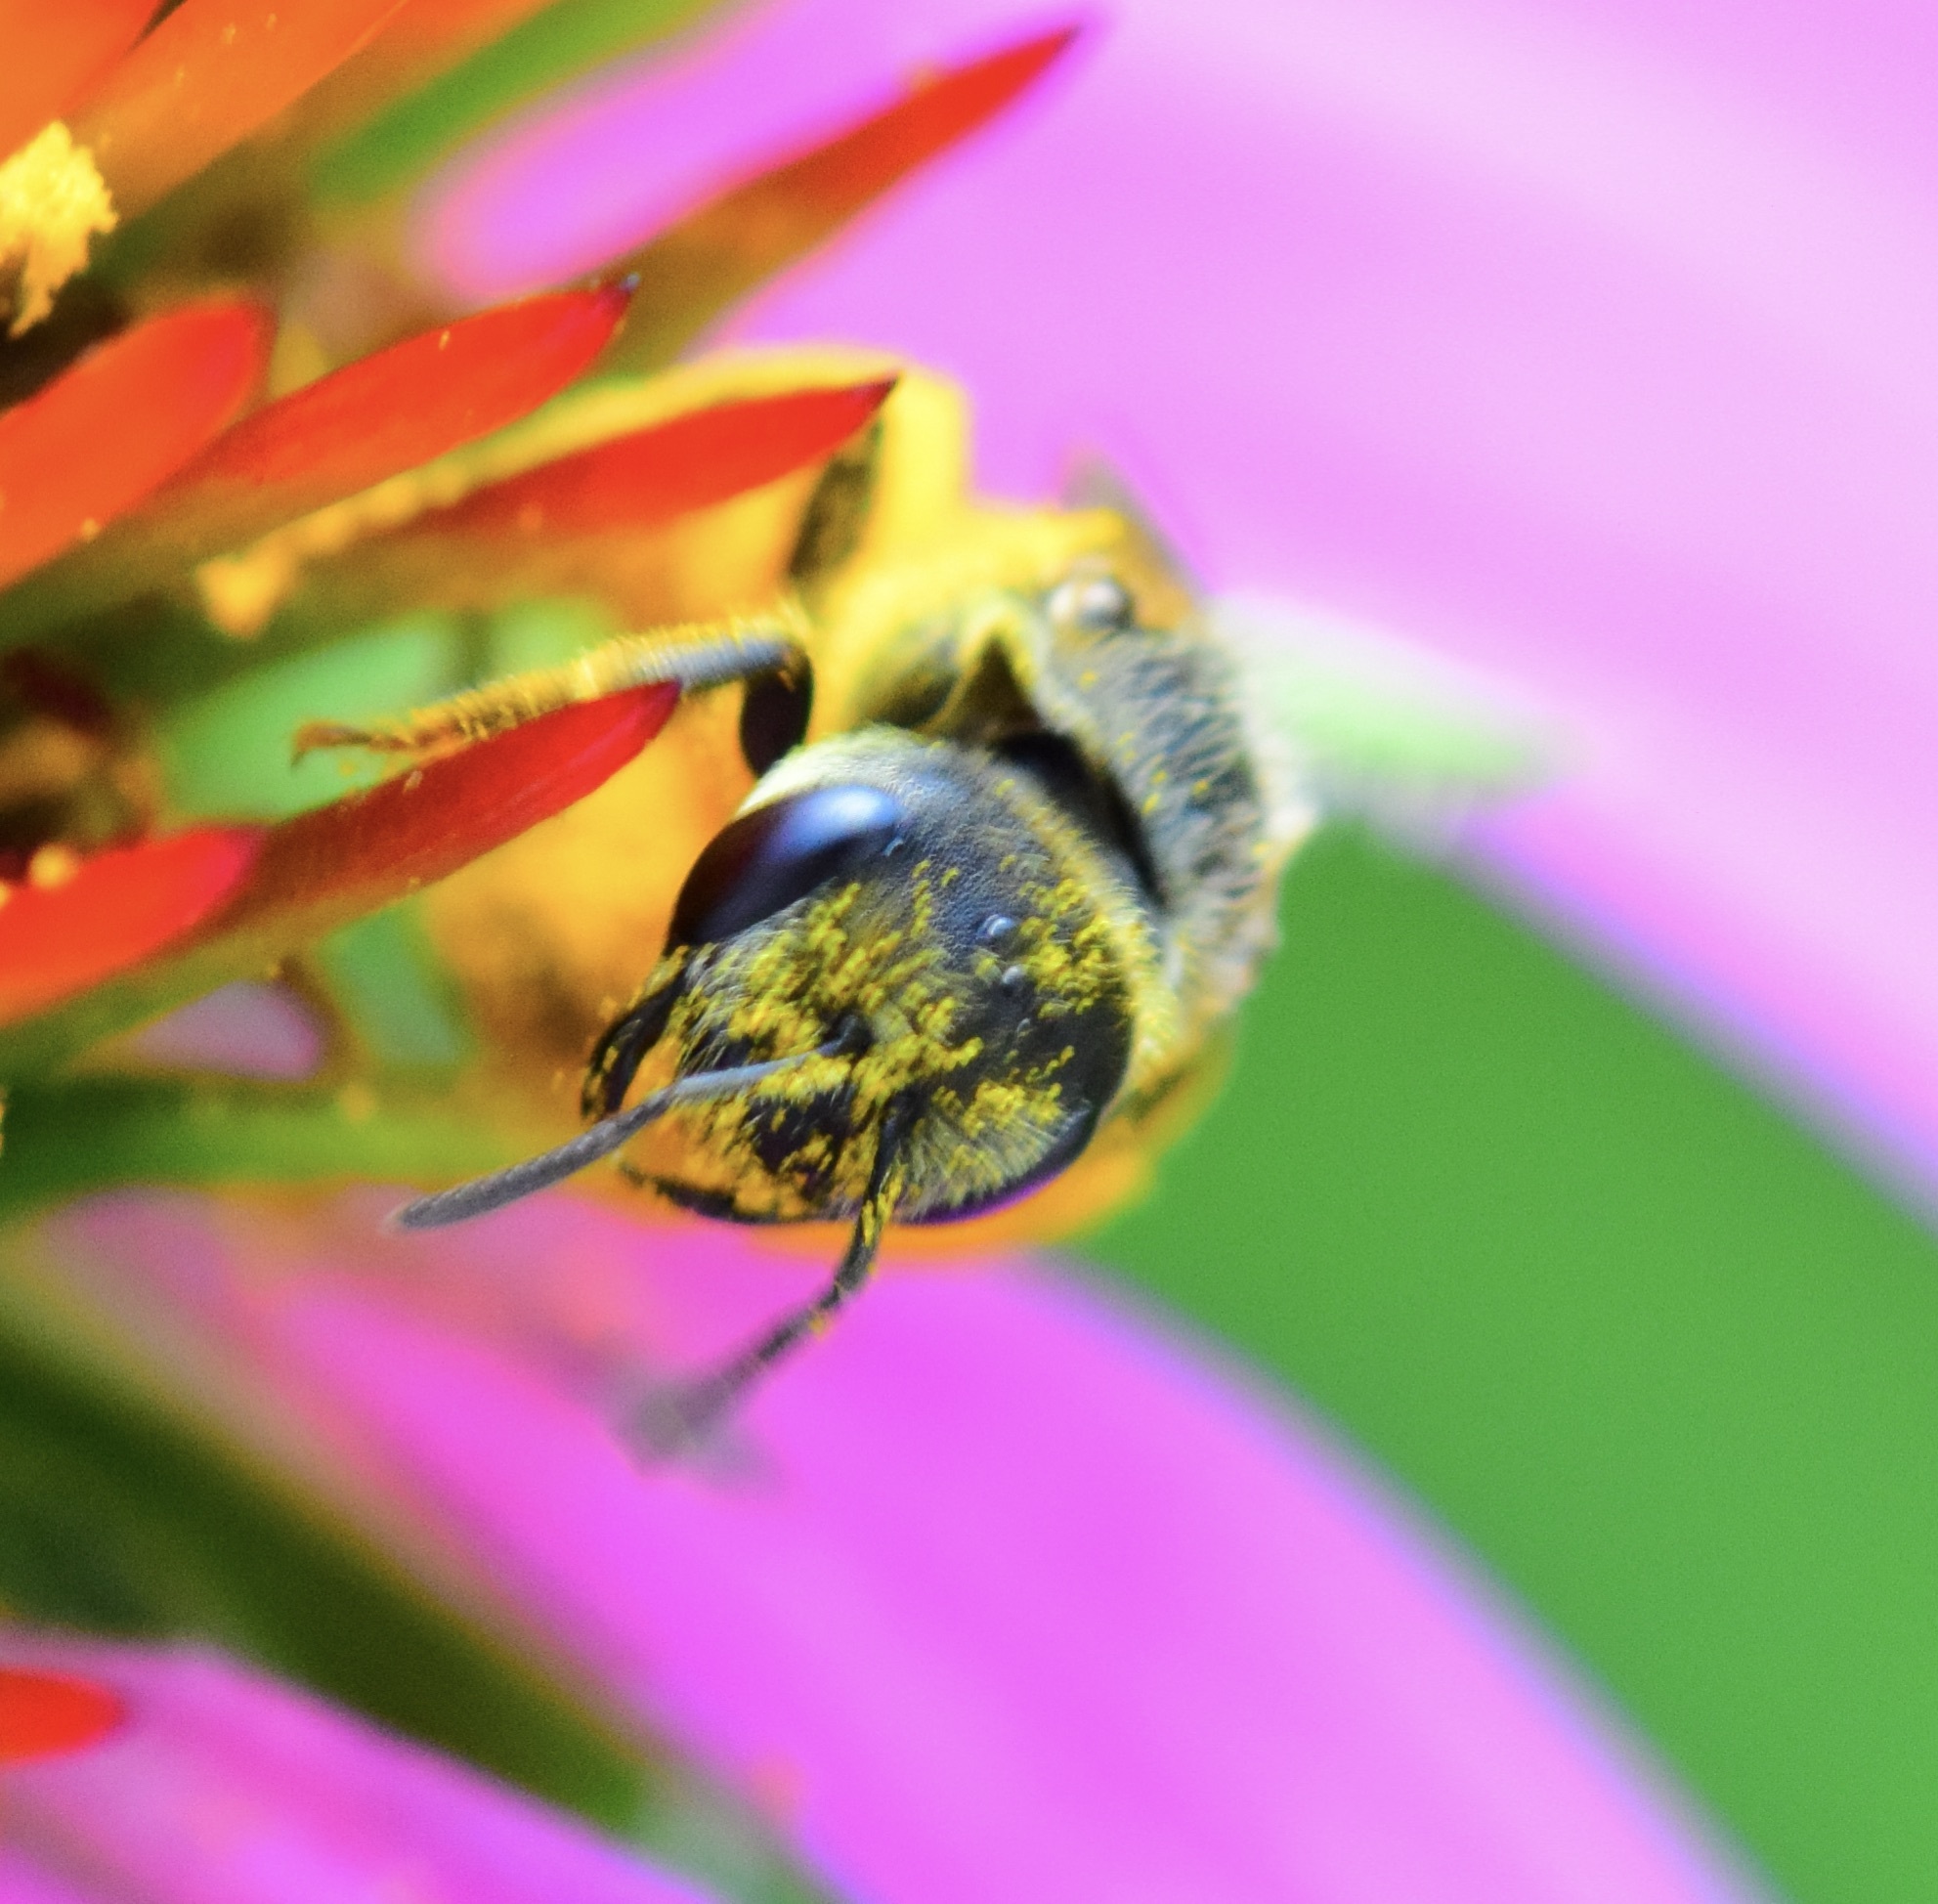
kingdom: Animalia
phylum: Arthropoda
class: Insecta
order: Hymenoptera
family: Halictidae
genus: Halictus
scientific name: Halictus ligatus
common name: Ligated furrow bee
